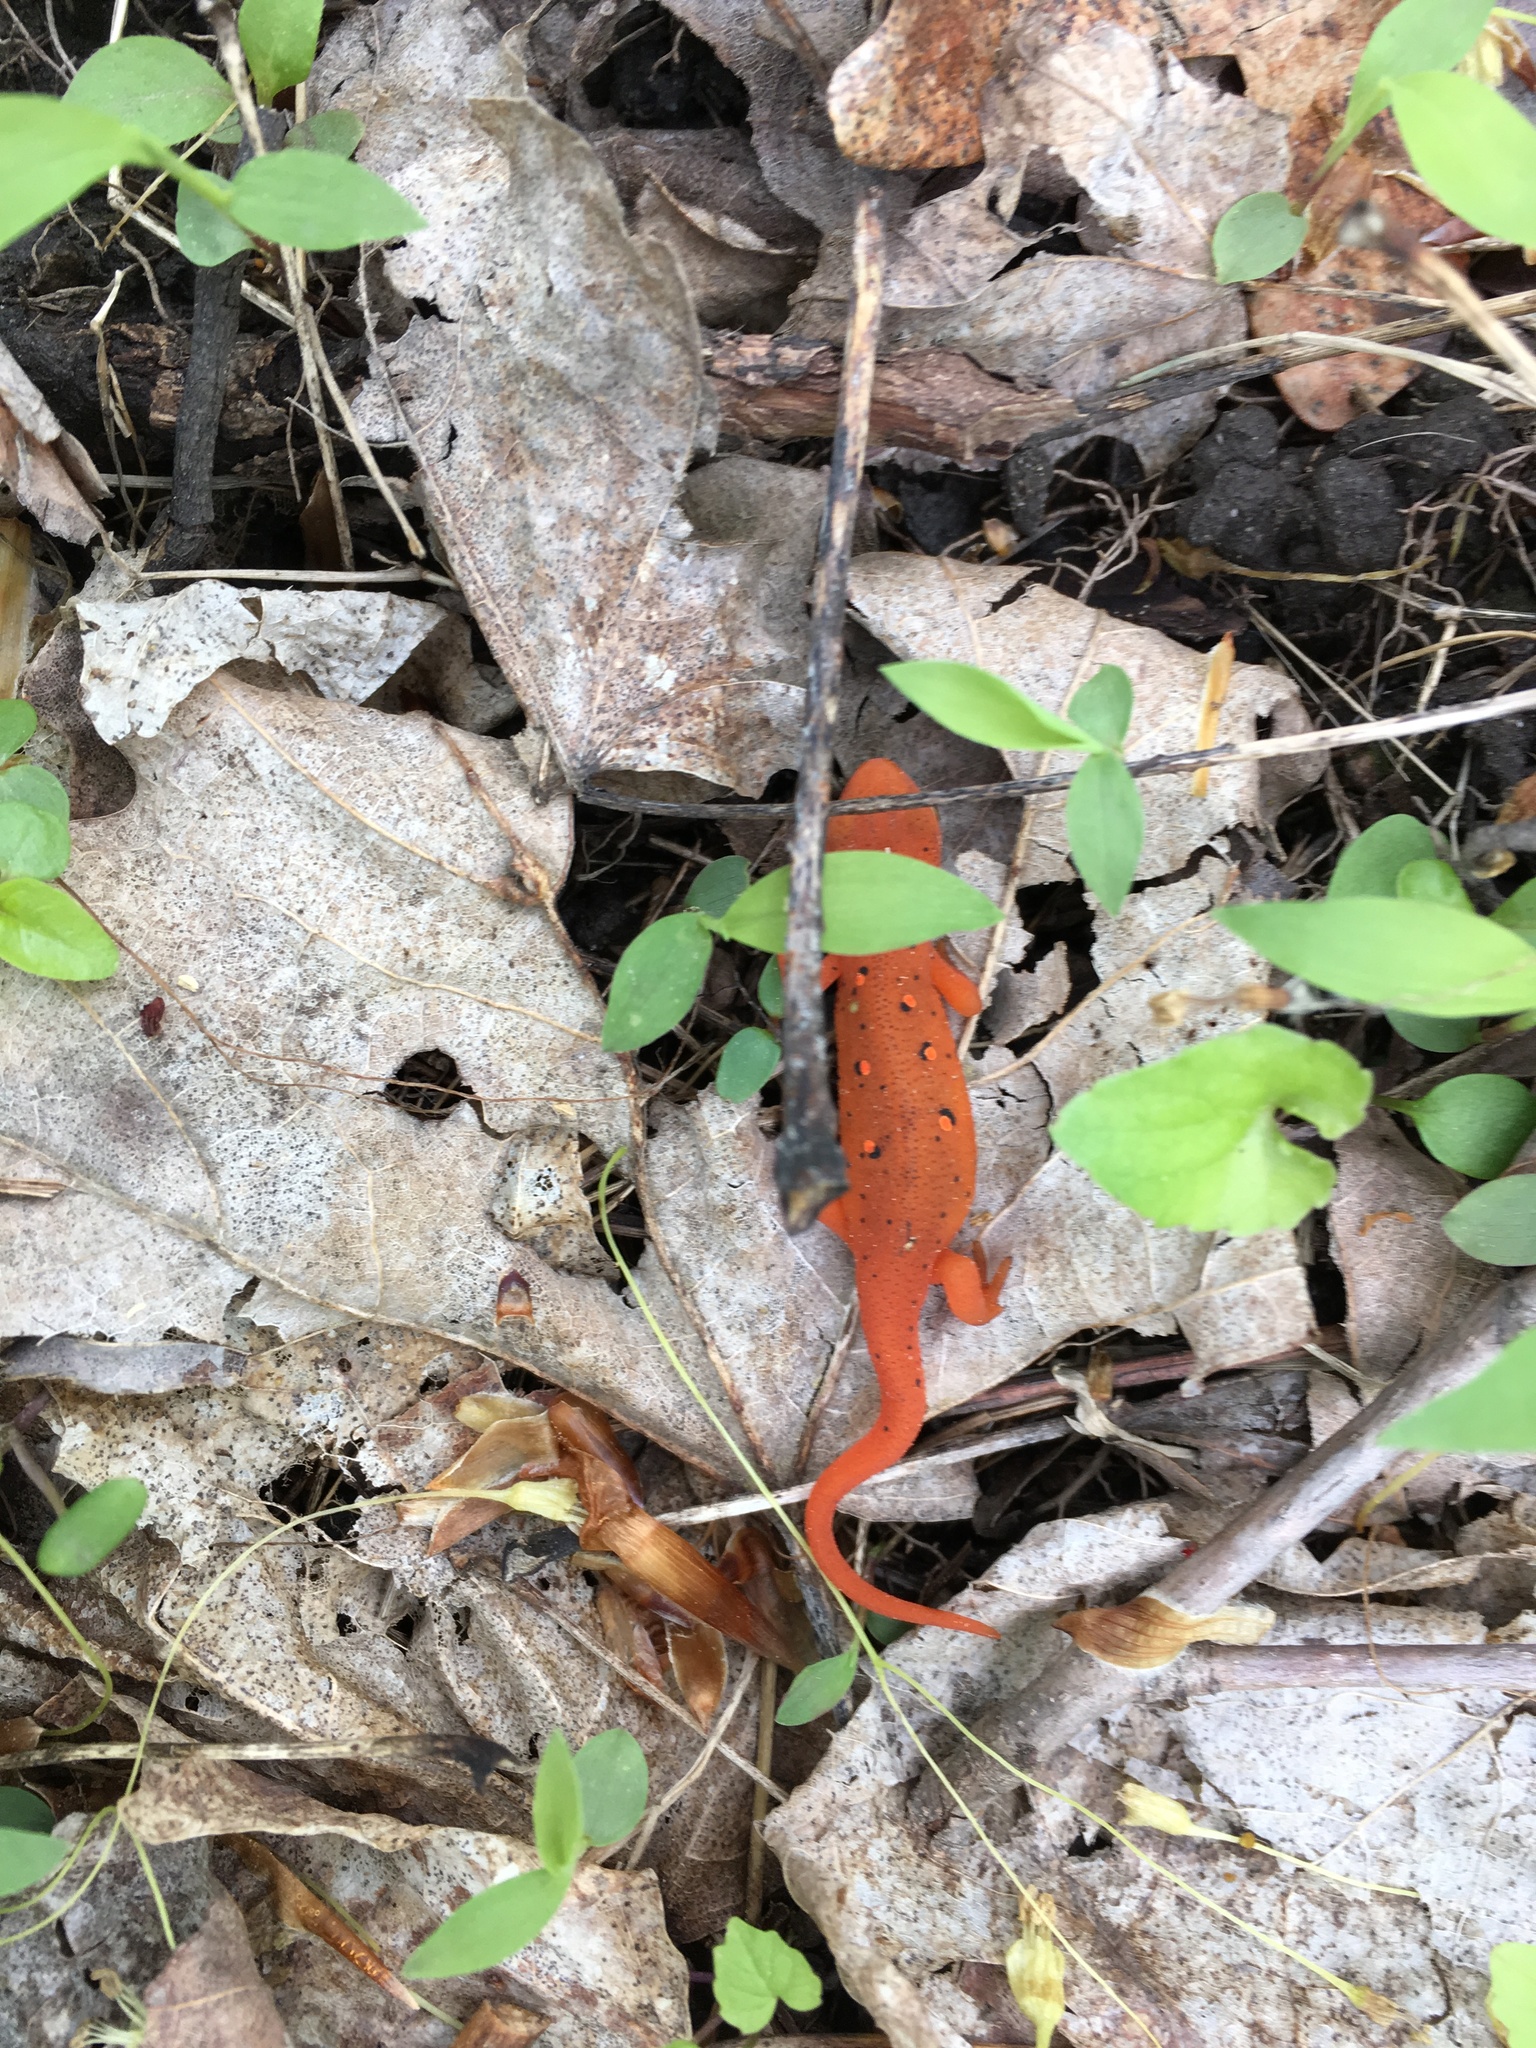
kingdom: Animalia
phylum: Chordata
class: Amphibia
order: Caudata
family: Salamandridae
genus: Notophthalmus
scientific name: Notophthalmus viridescens
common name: Eastern newt
